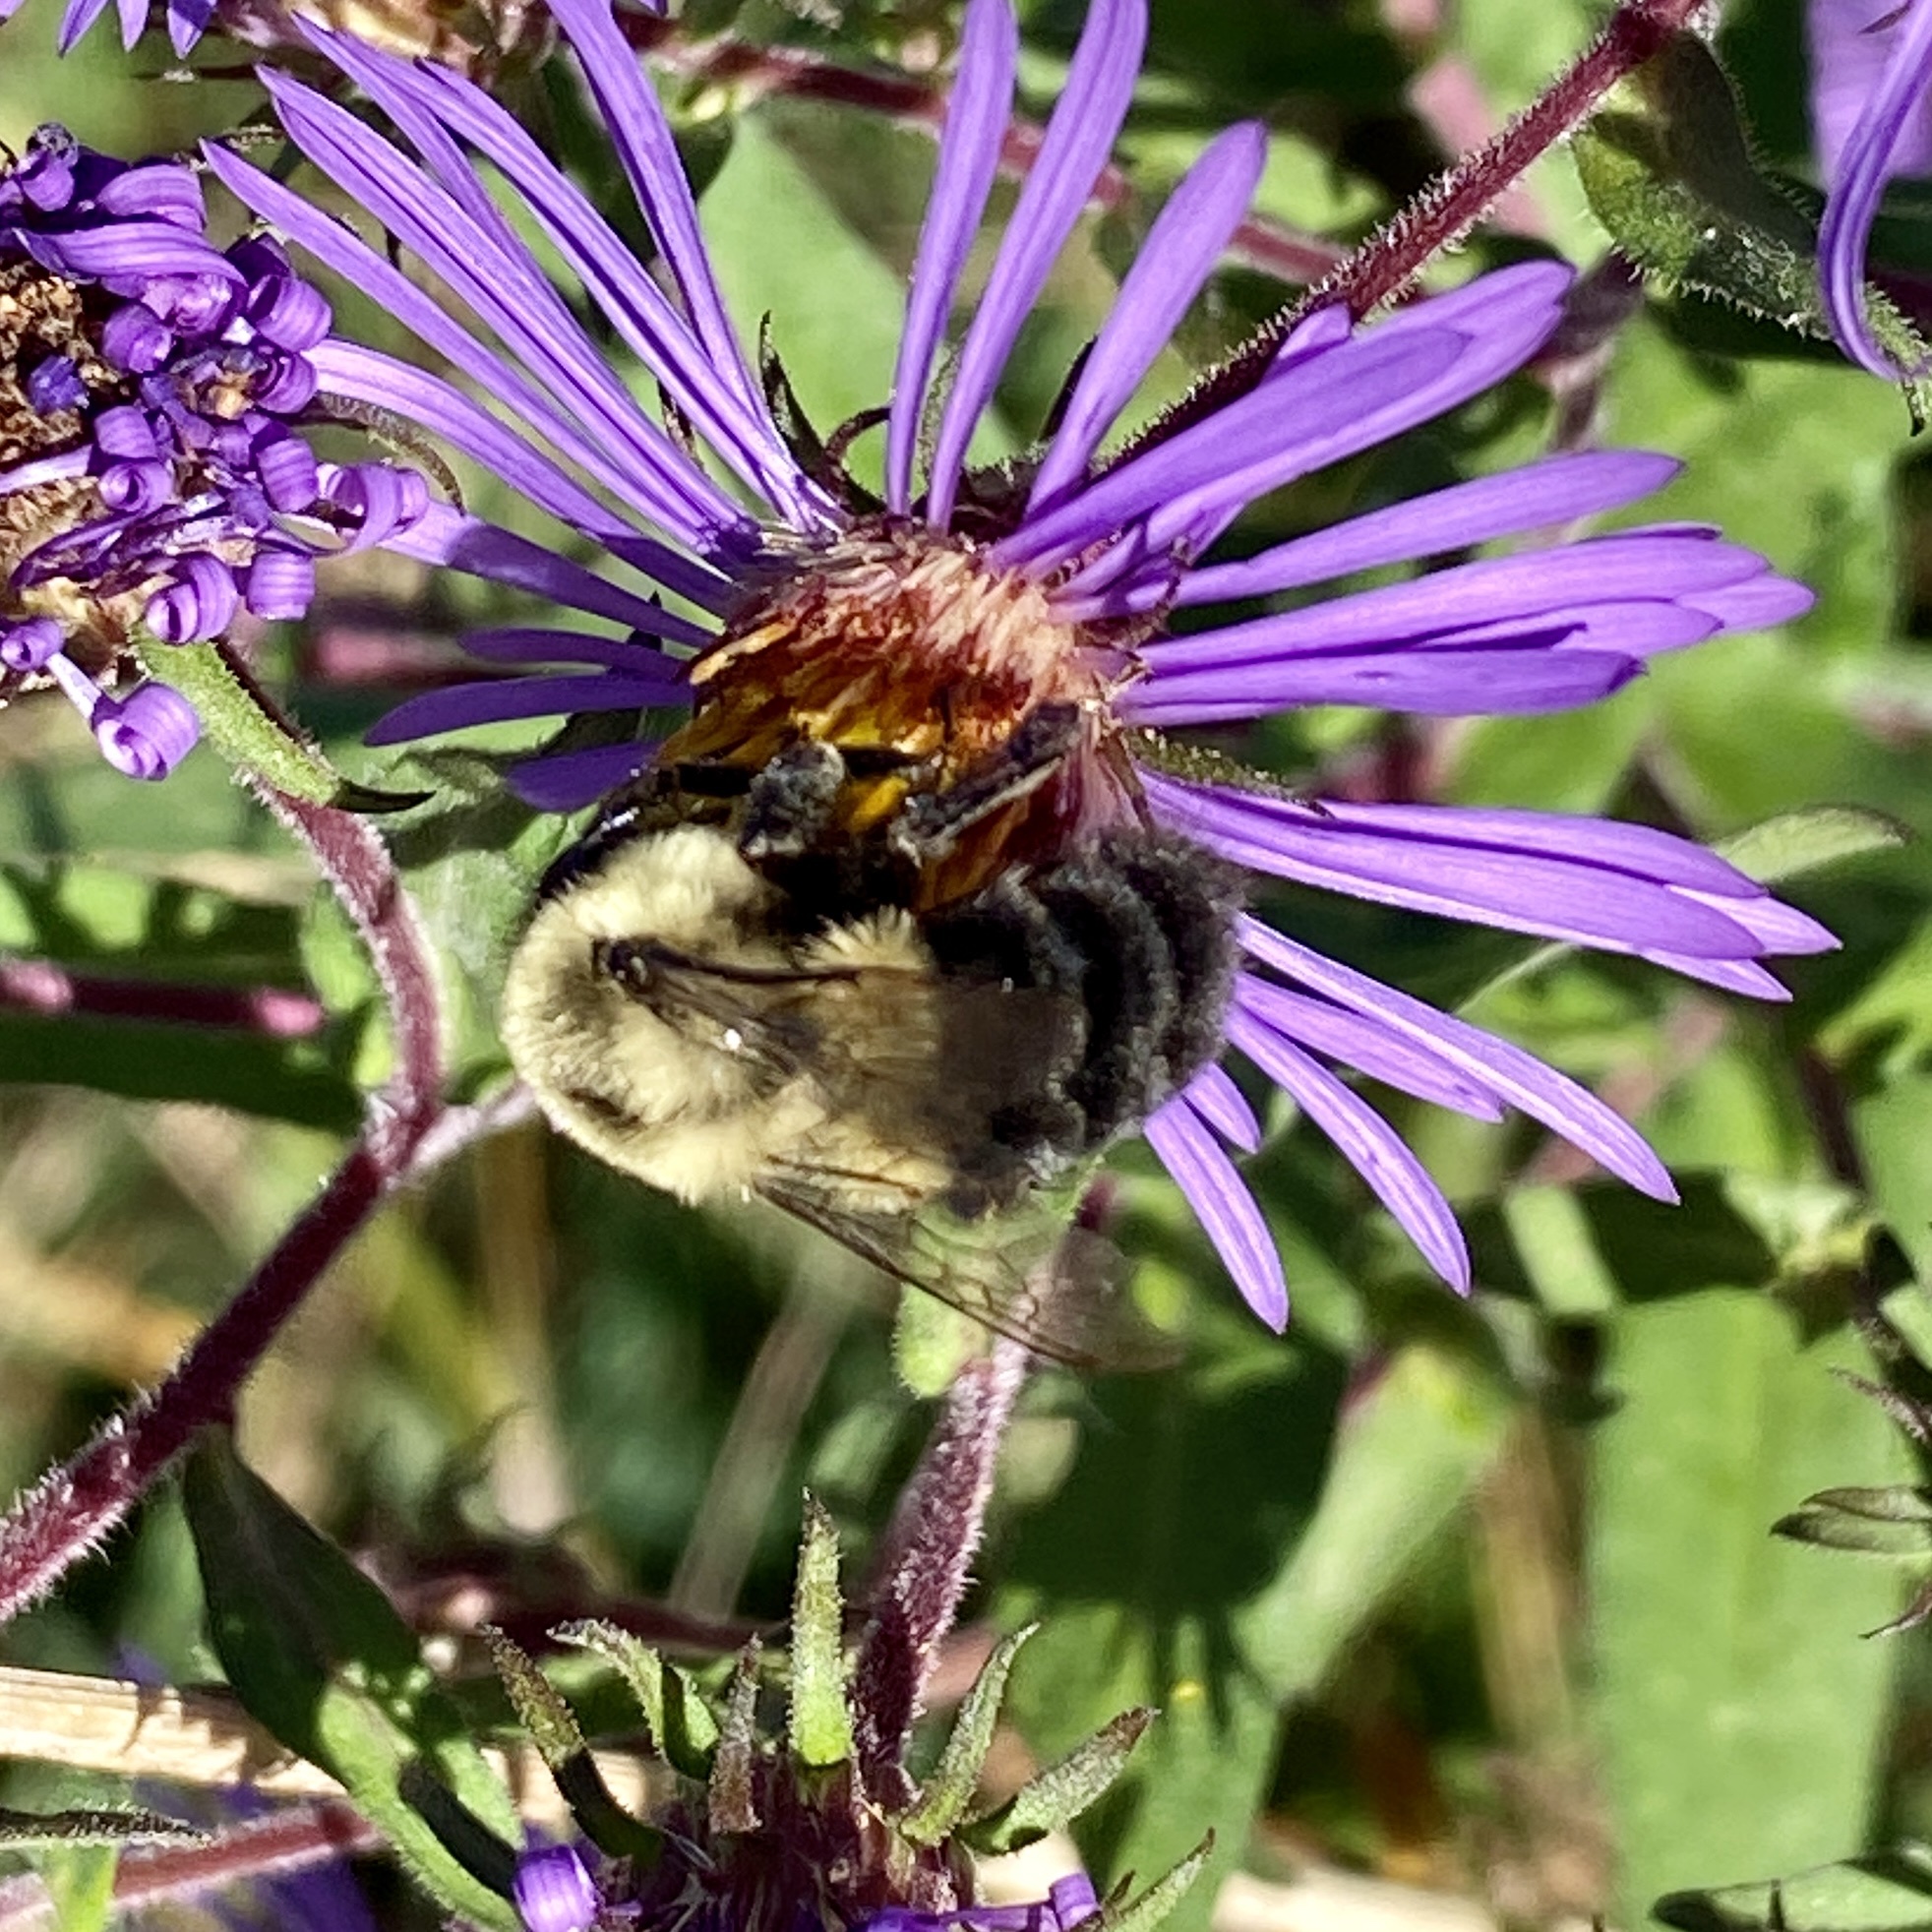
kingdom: Animalia
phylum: Arthropoda
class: Insecta
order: Hymenoptera
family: Apidae
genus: Bombus
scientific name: Bombus impatiens
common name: Common eastern bumble bee
